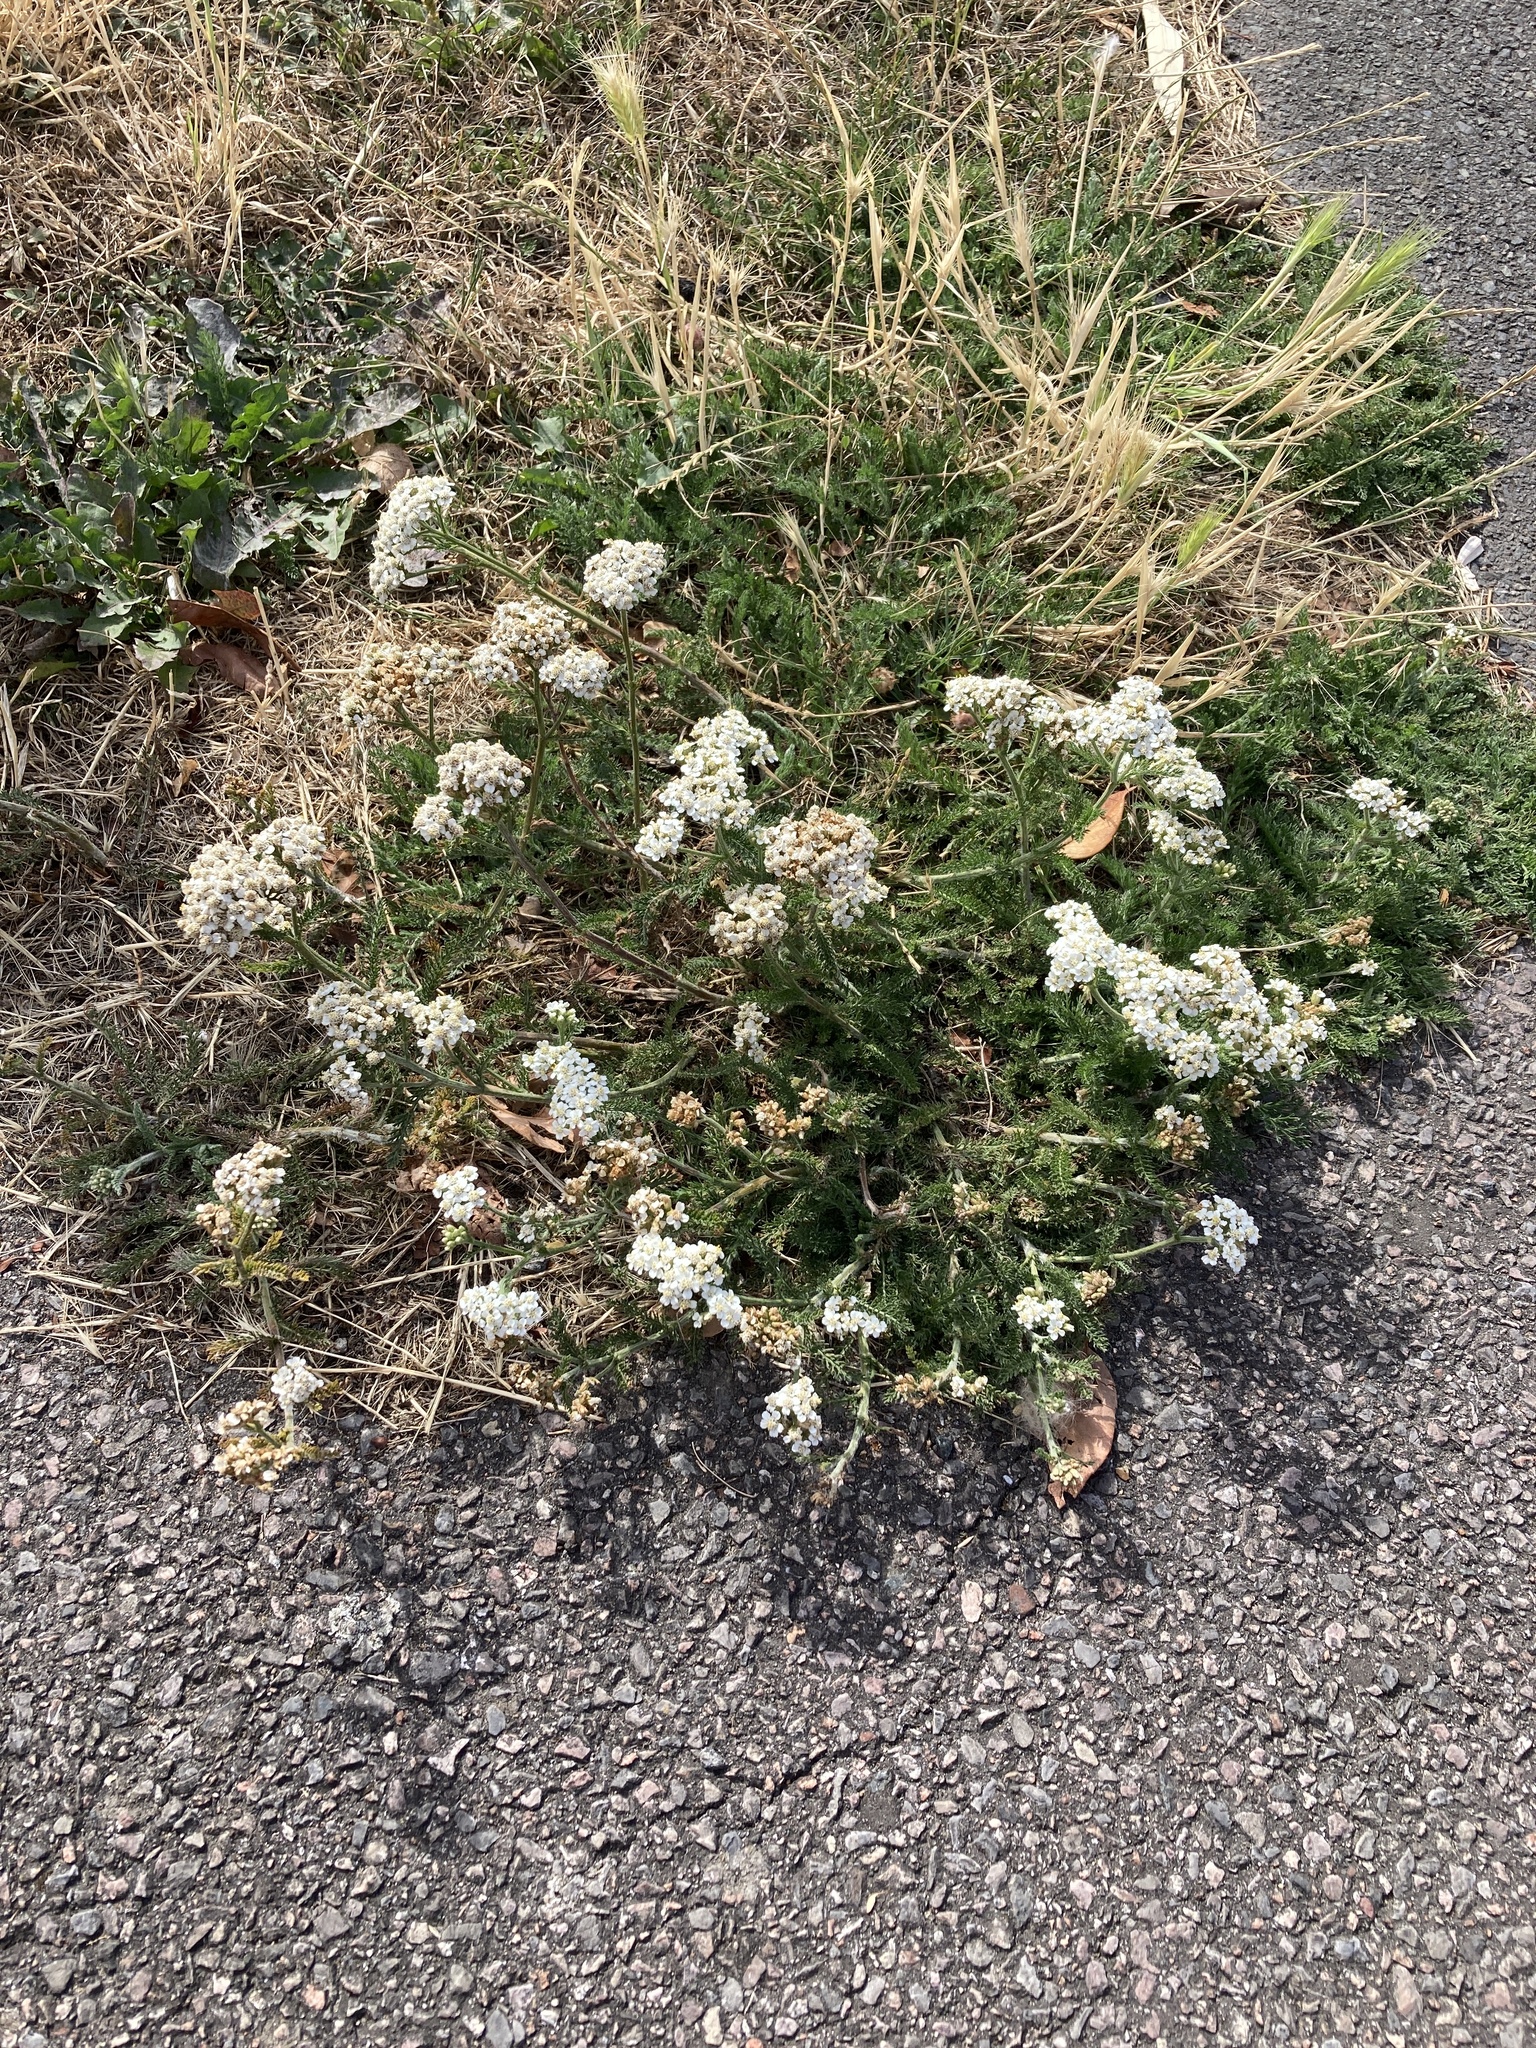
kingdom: Plantae
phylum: Tracheophyta
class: Magnoliopsida
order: Asterales
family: Asteraceae
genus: Achillea
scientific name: Achillea millefolium
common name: Yarrow
